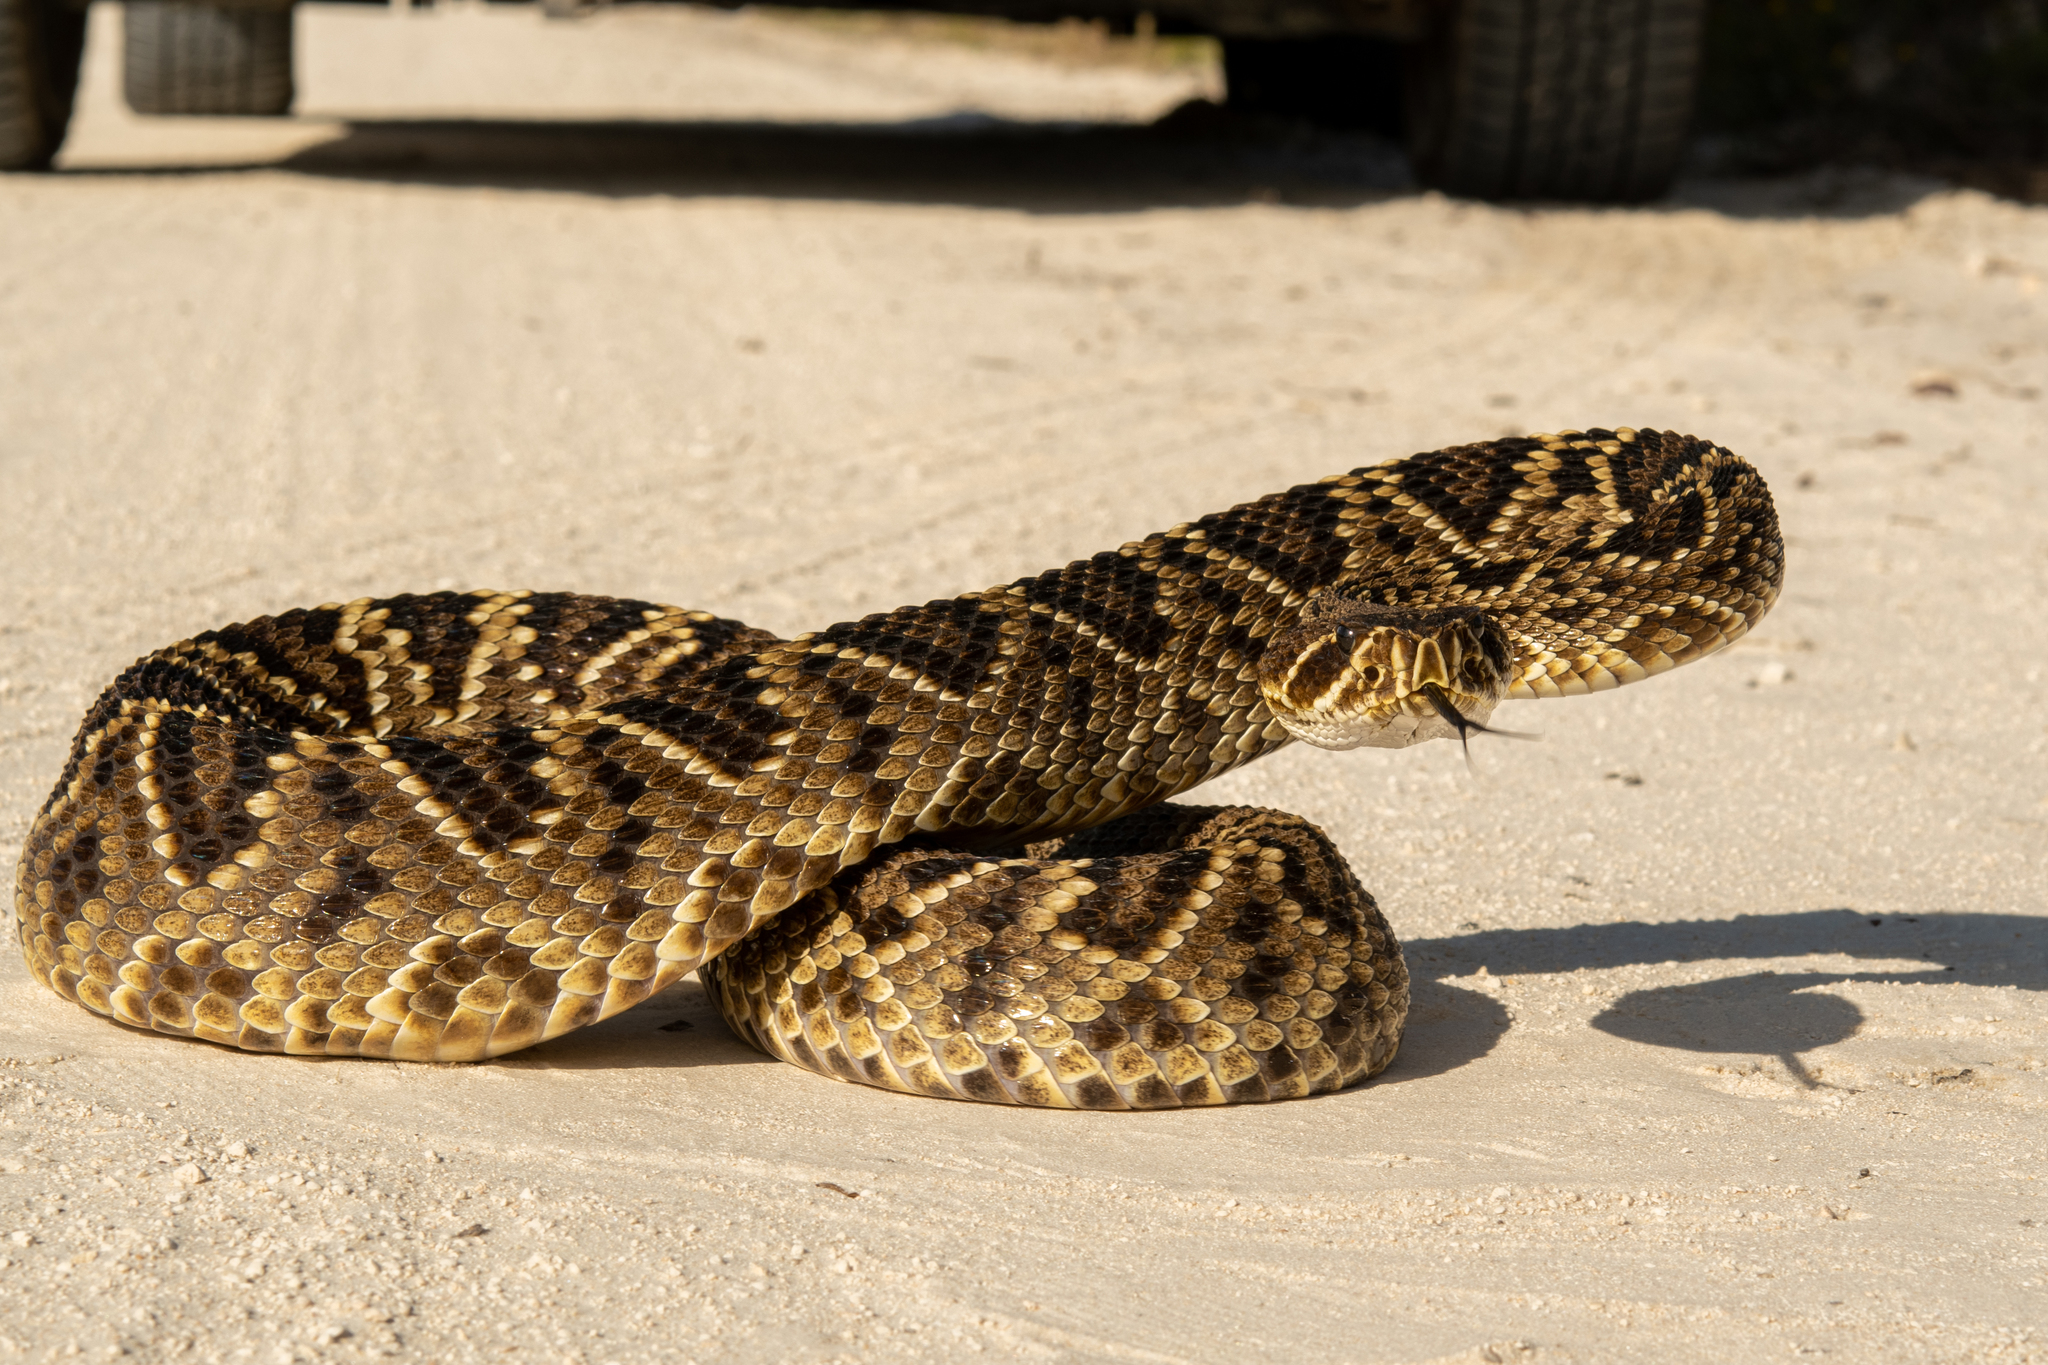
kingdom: Animalia
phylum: Chordata
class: Squamata
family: Viperidae
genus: Crotalus
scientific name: Crotalus adamanteus
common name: Eastern diamondback rattlesnake
